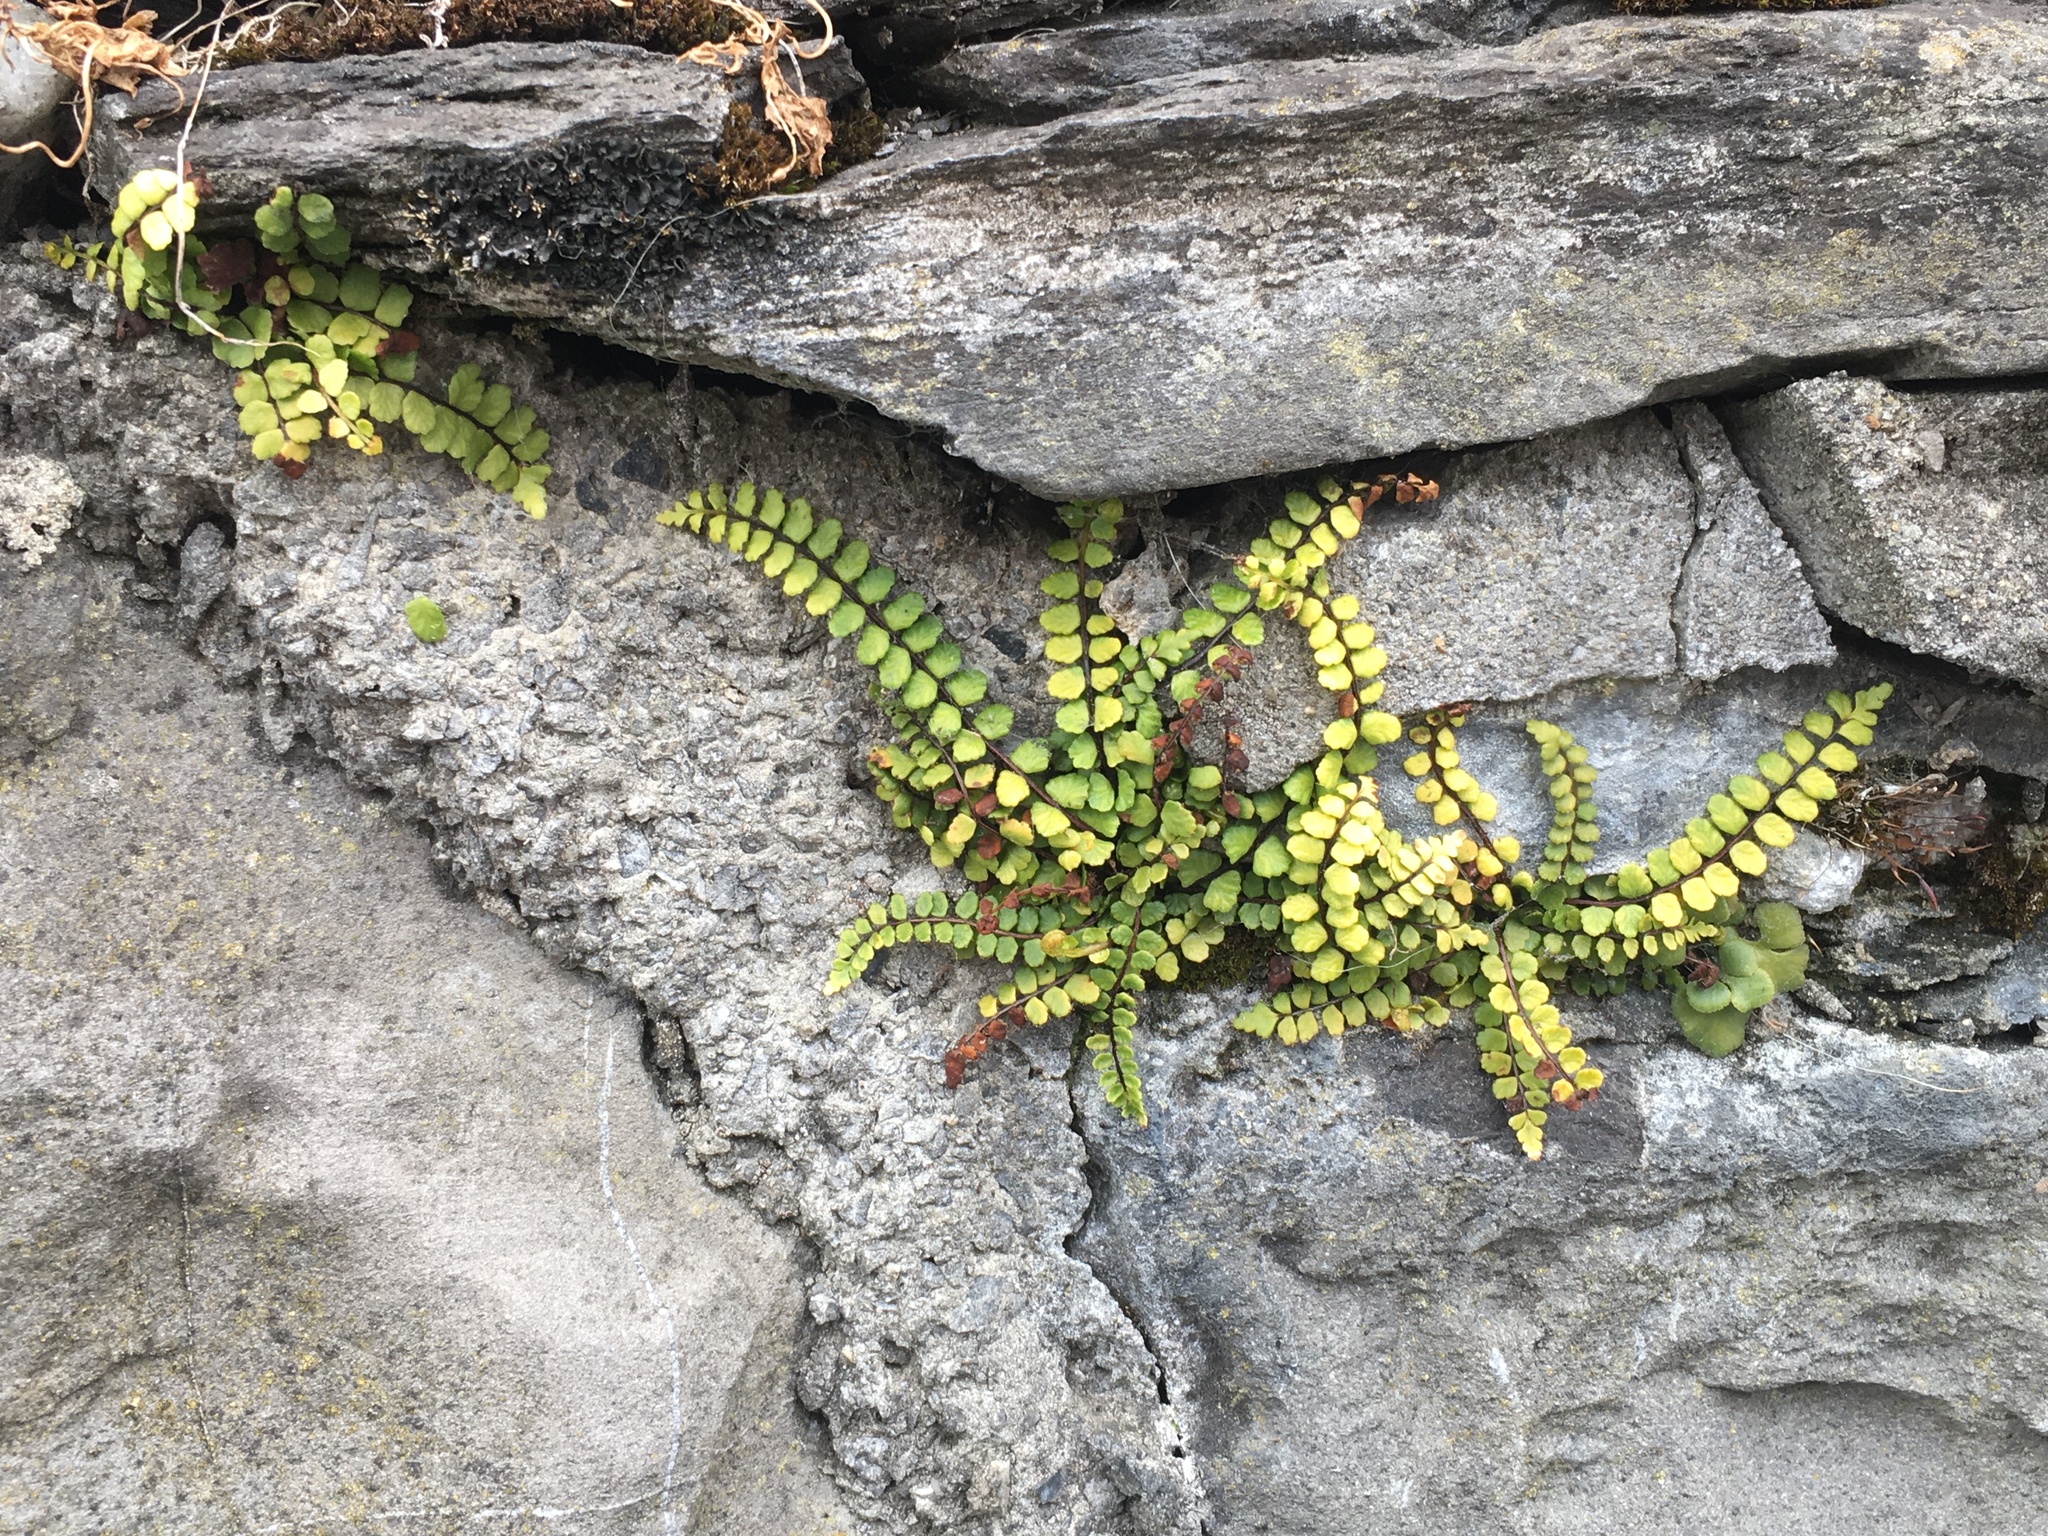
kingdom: Plantae
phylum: Tracheophyta
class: Polypodiopsida
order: Polypodiales
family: Aspleniaceae
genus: Asplenium
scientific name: Asplenium trichomanes
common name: Maidenhair spleenwort
